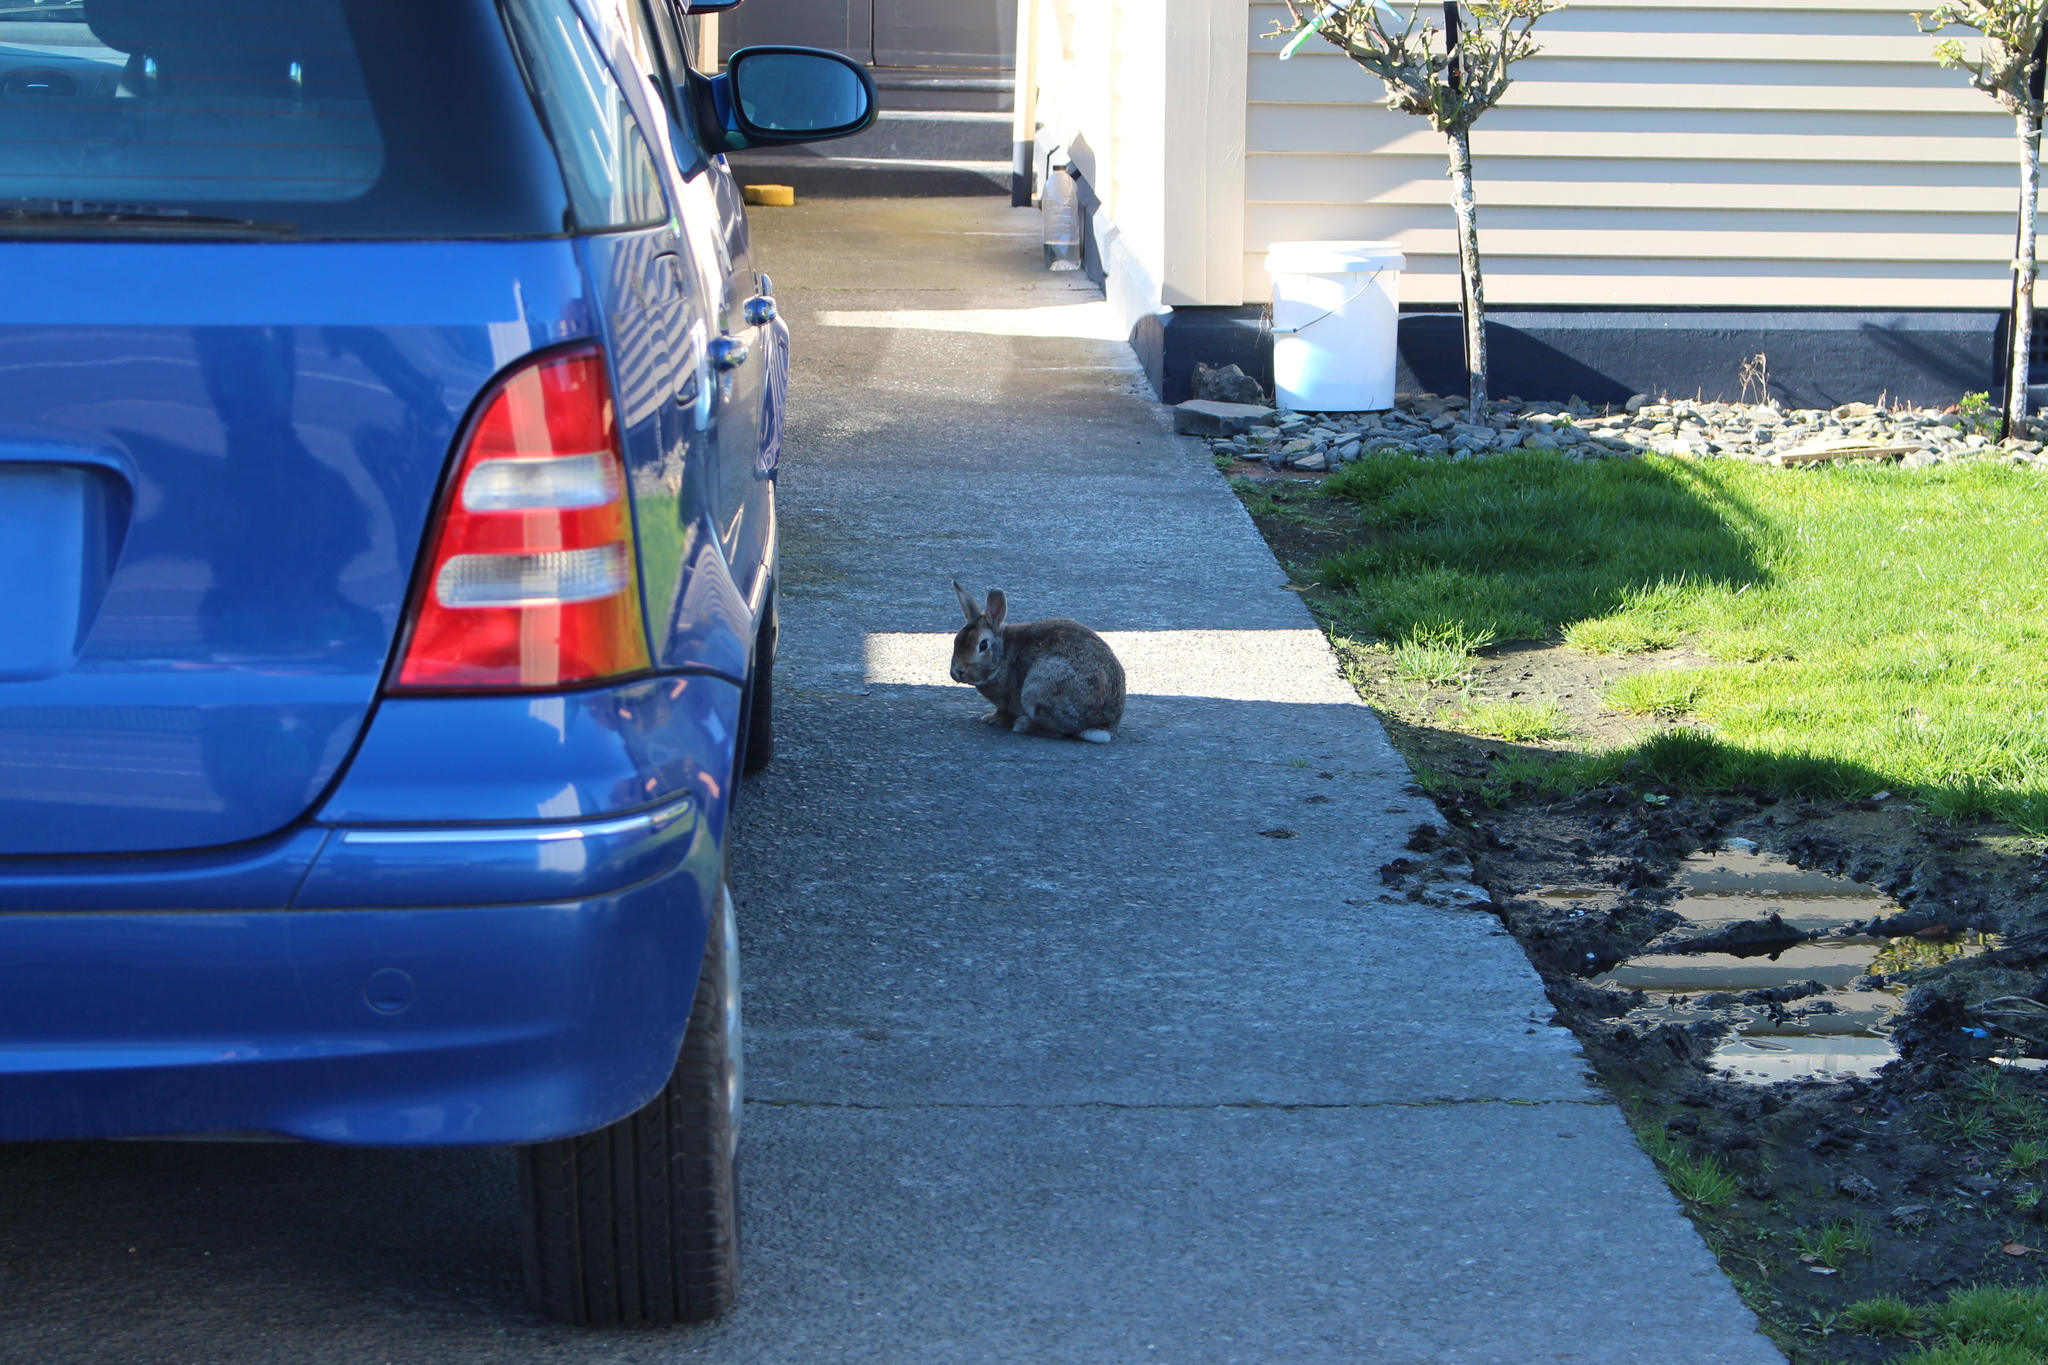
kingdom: Animalia
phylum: Chordata
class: Mammalia
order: Lagomorpha
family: Leporidae
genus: Oryctolagus
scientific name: Oryctolagus cuniculus
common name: European rabbit
